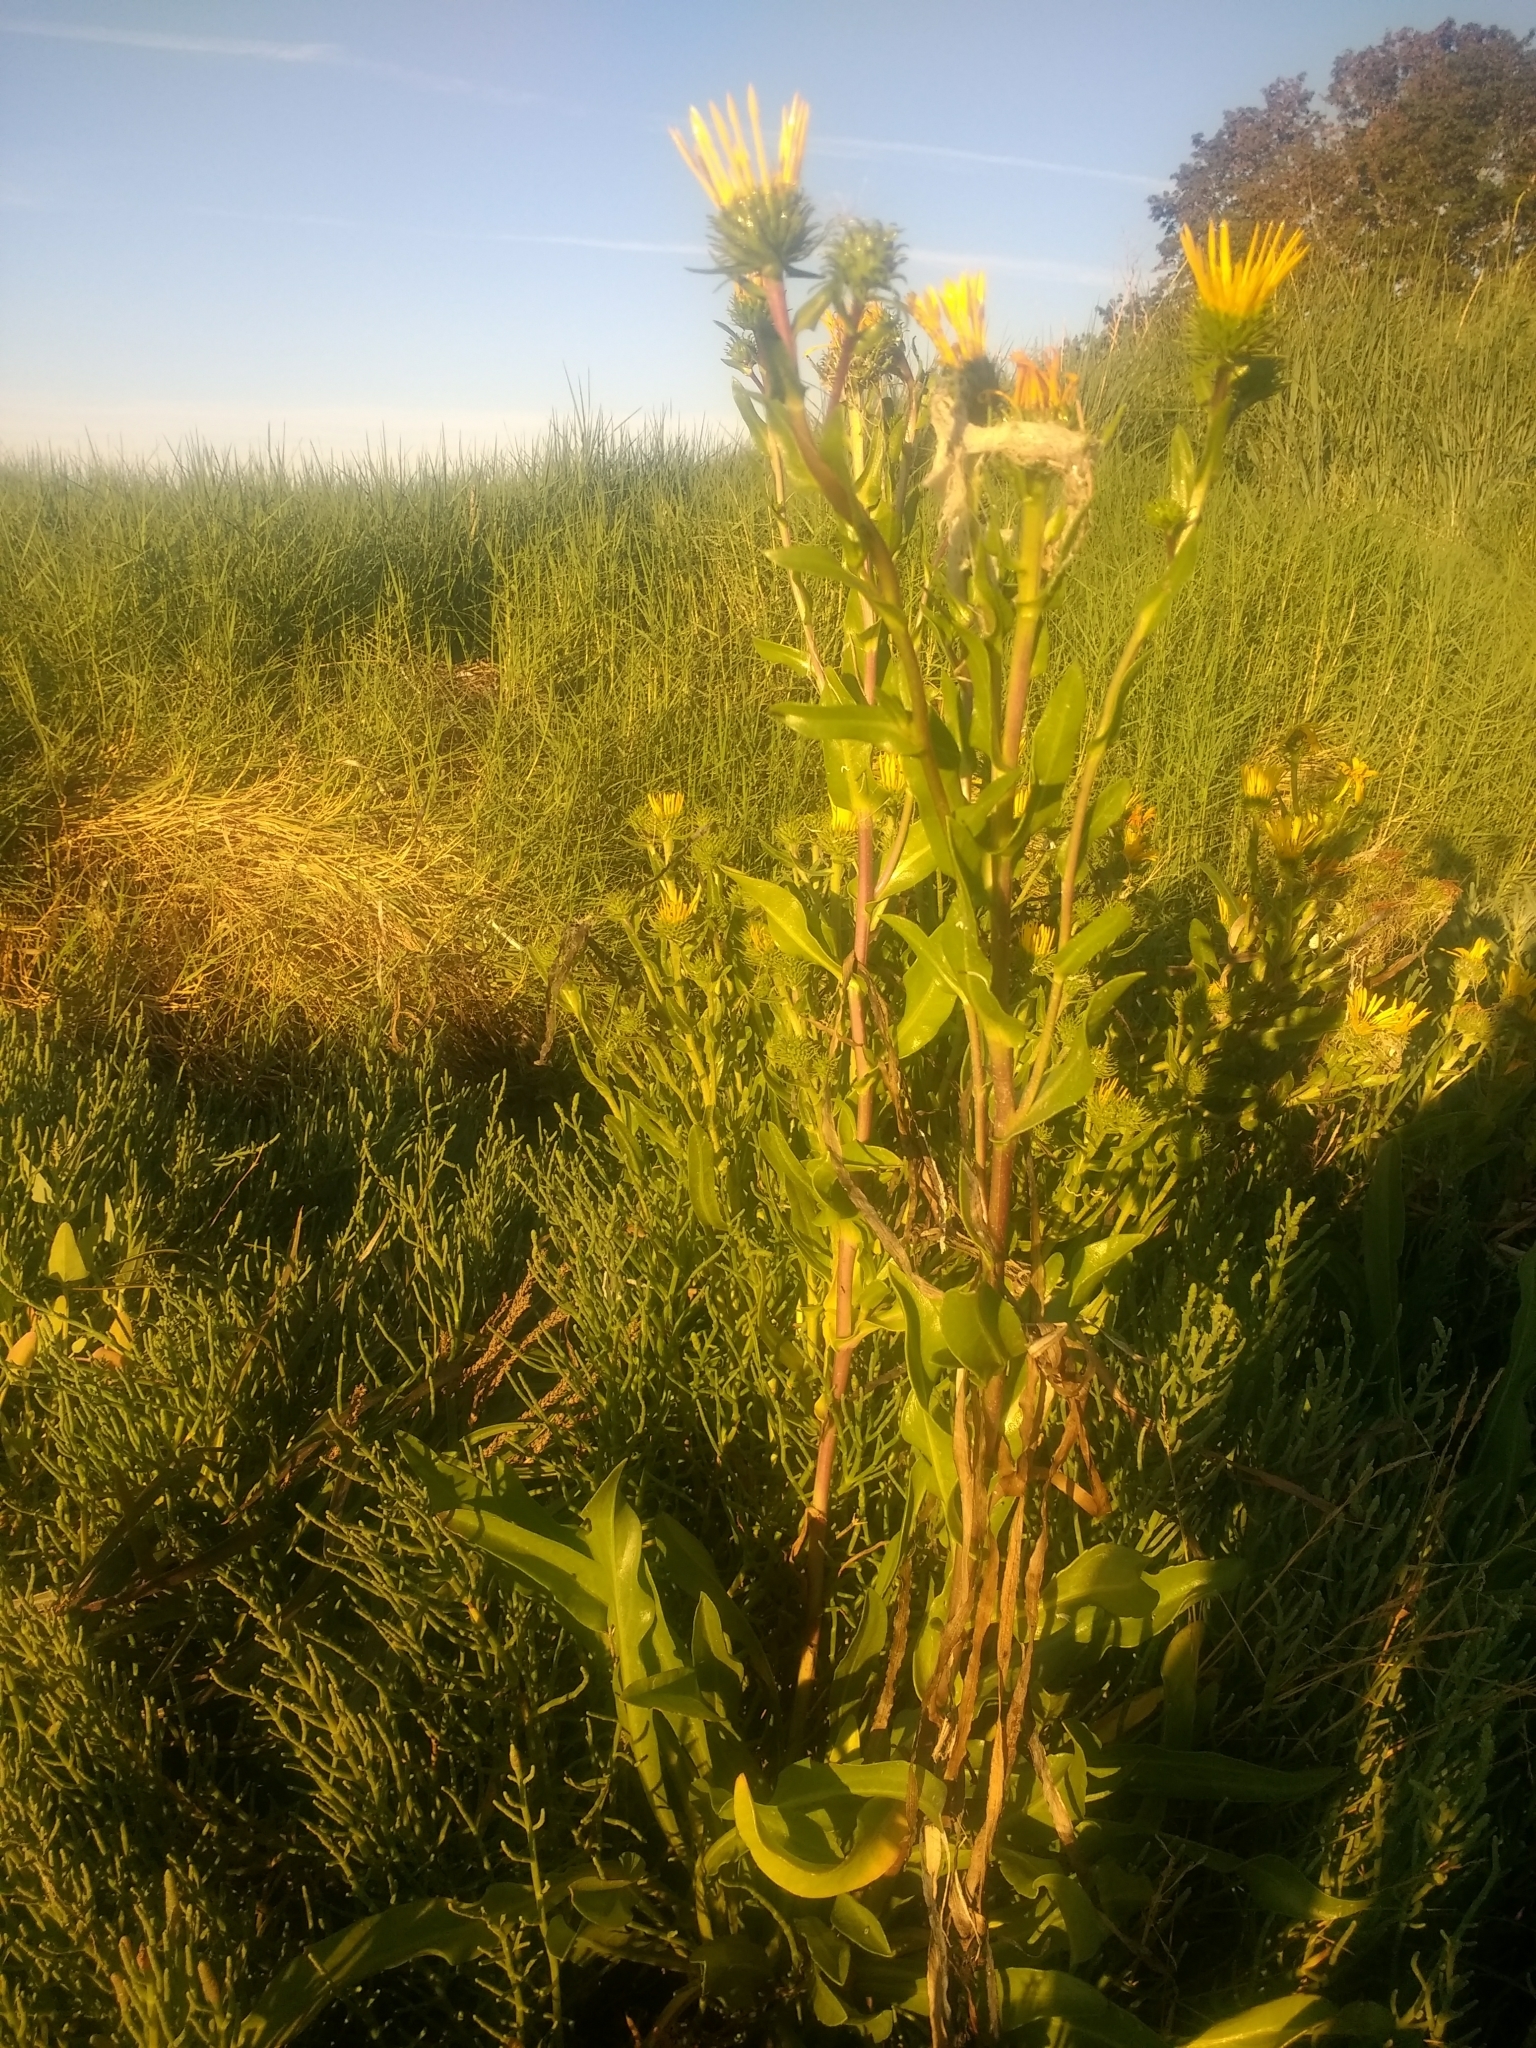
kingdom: Plantae
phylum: Tracheophyta
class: Magnoliopsida
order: Asterales
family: Asteraceae
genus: Grindelia
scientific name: Grindelia hirsutula
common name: Hairy gumweed
